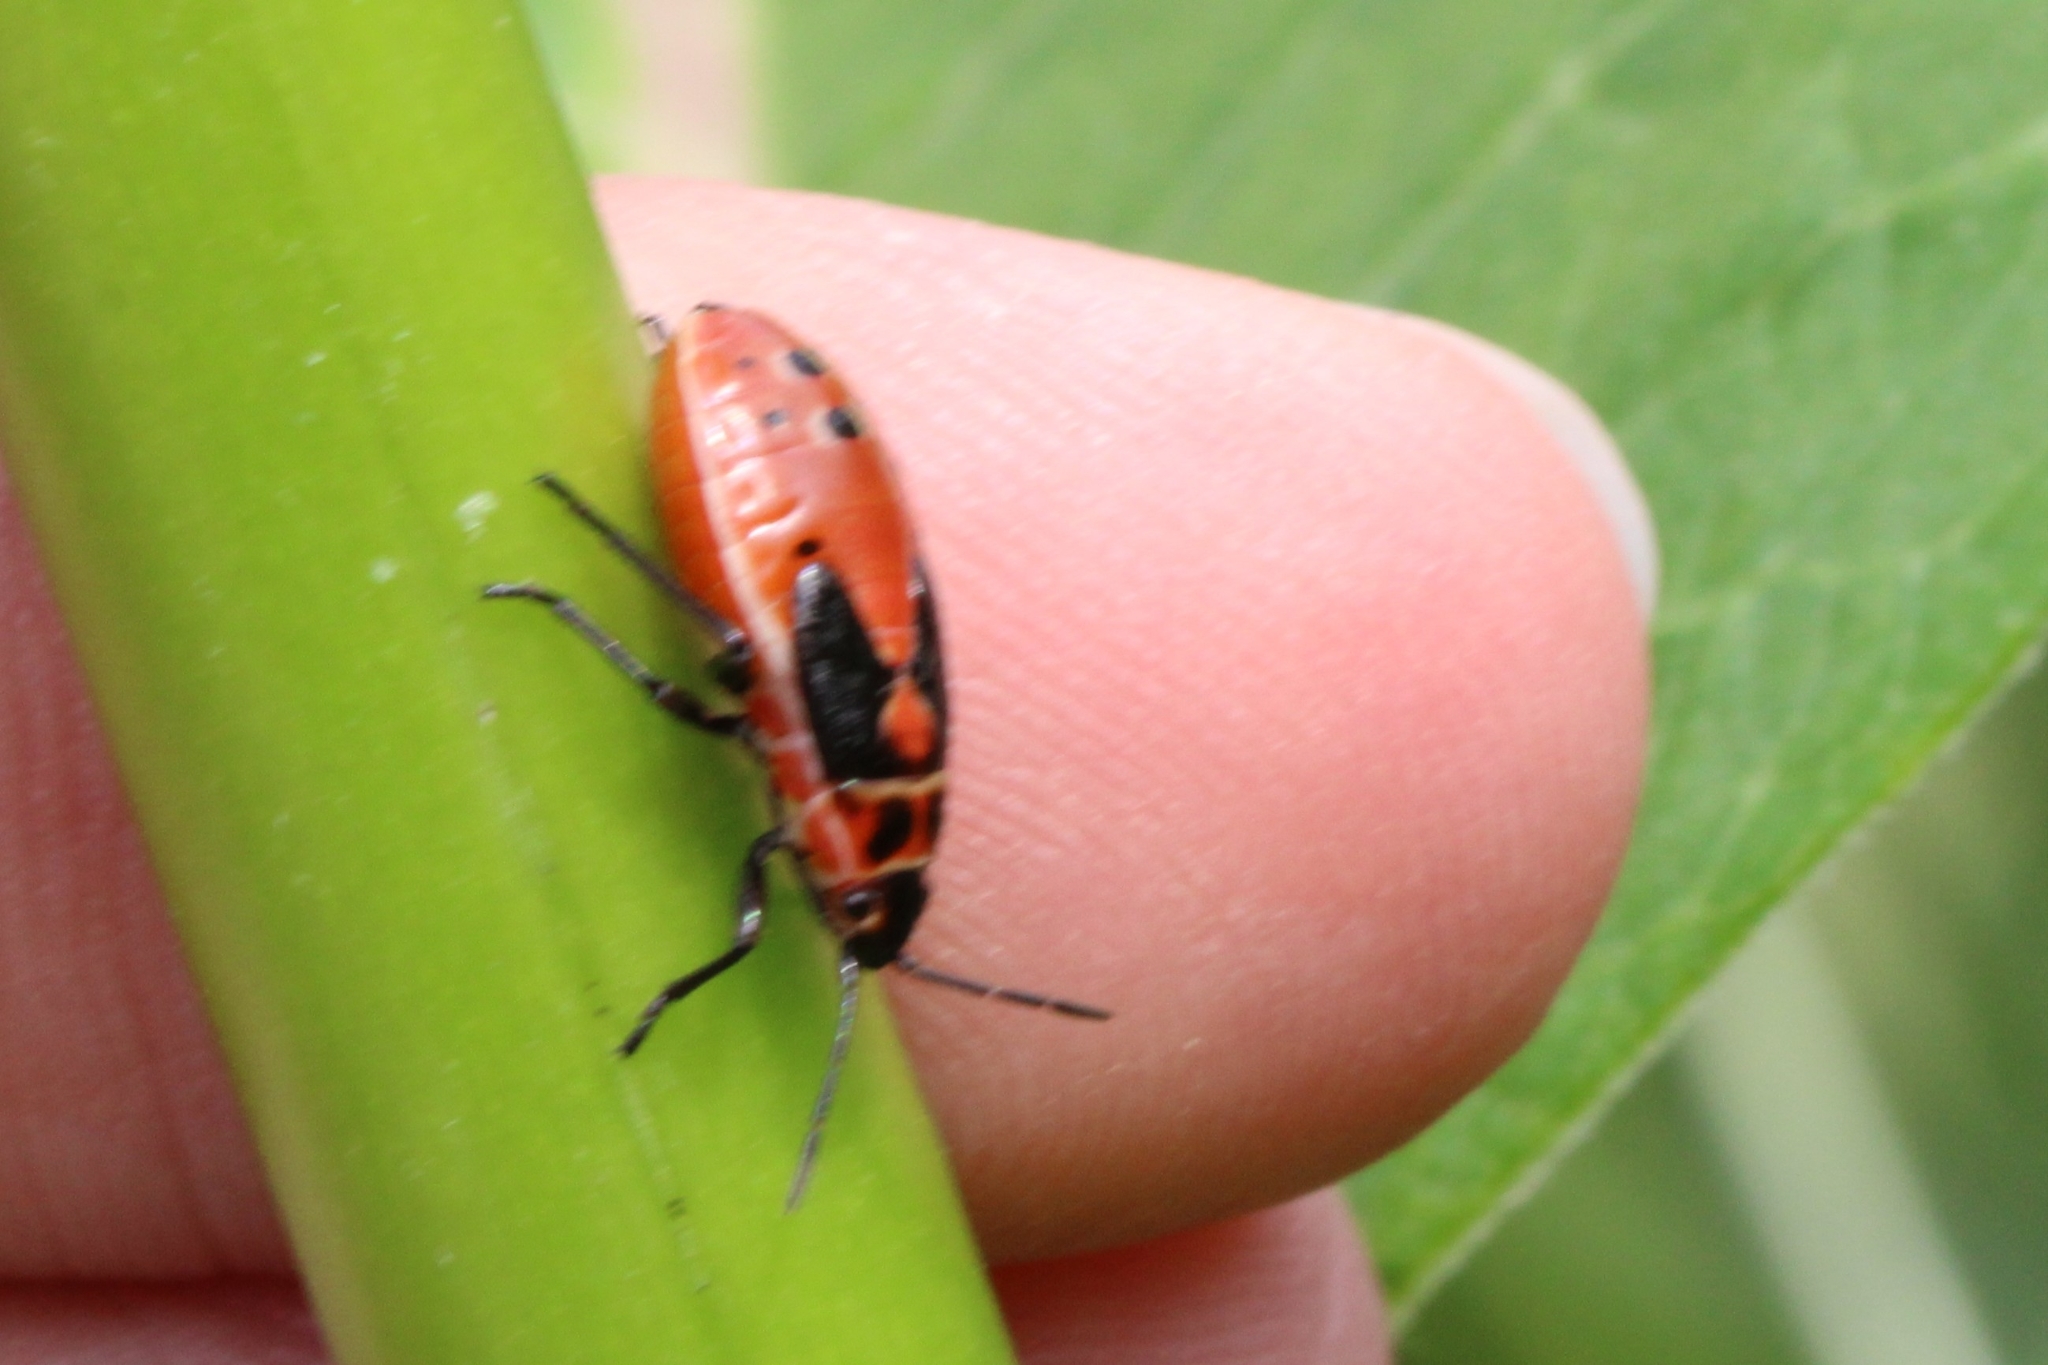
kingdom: Animalia
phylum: Arthropoda
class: Insecta
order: Hemiptera
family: Lygaeidae
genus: Lygaeus
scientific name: Lygaeus kalmii
